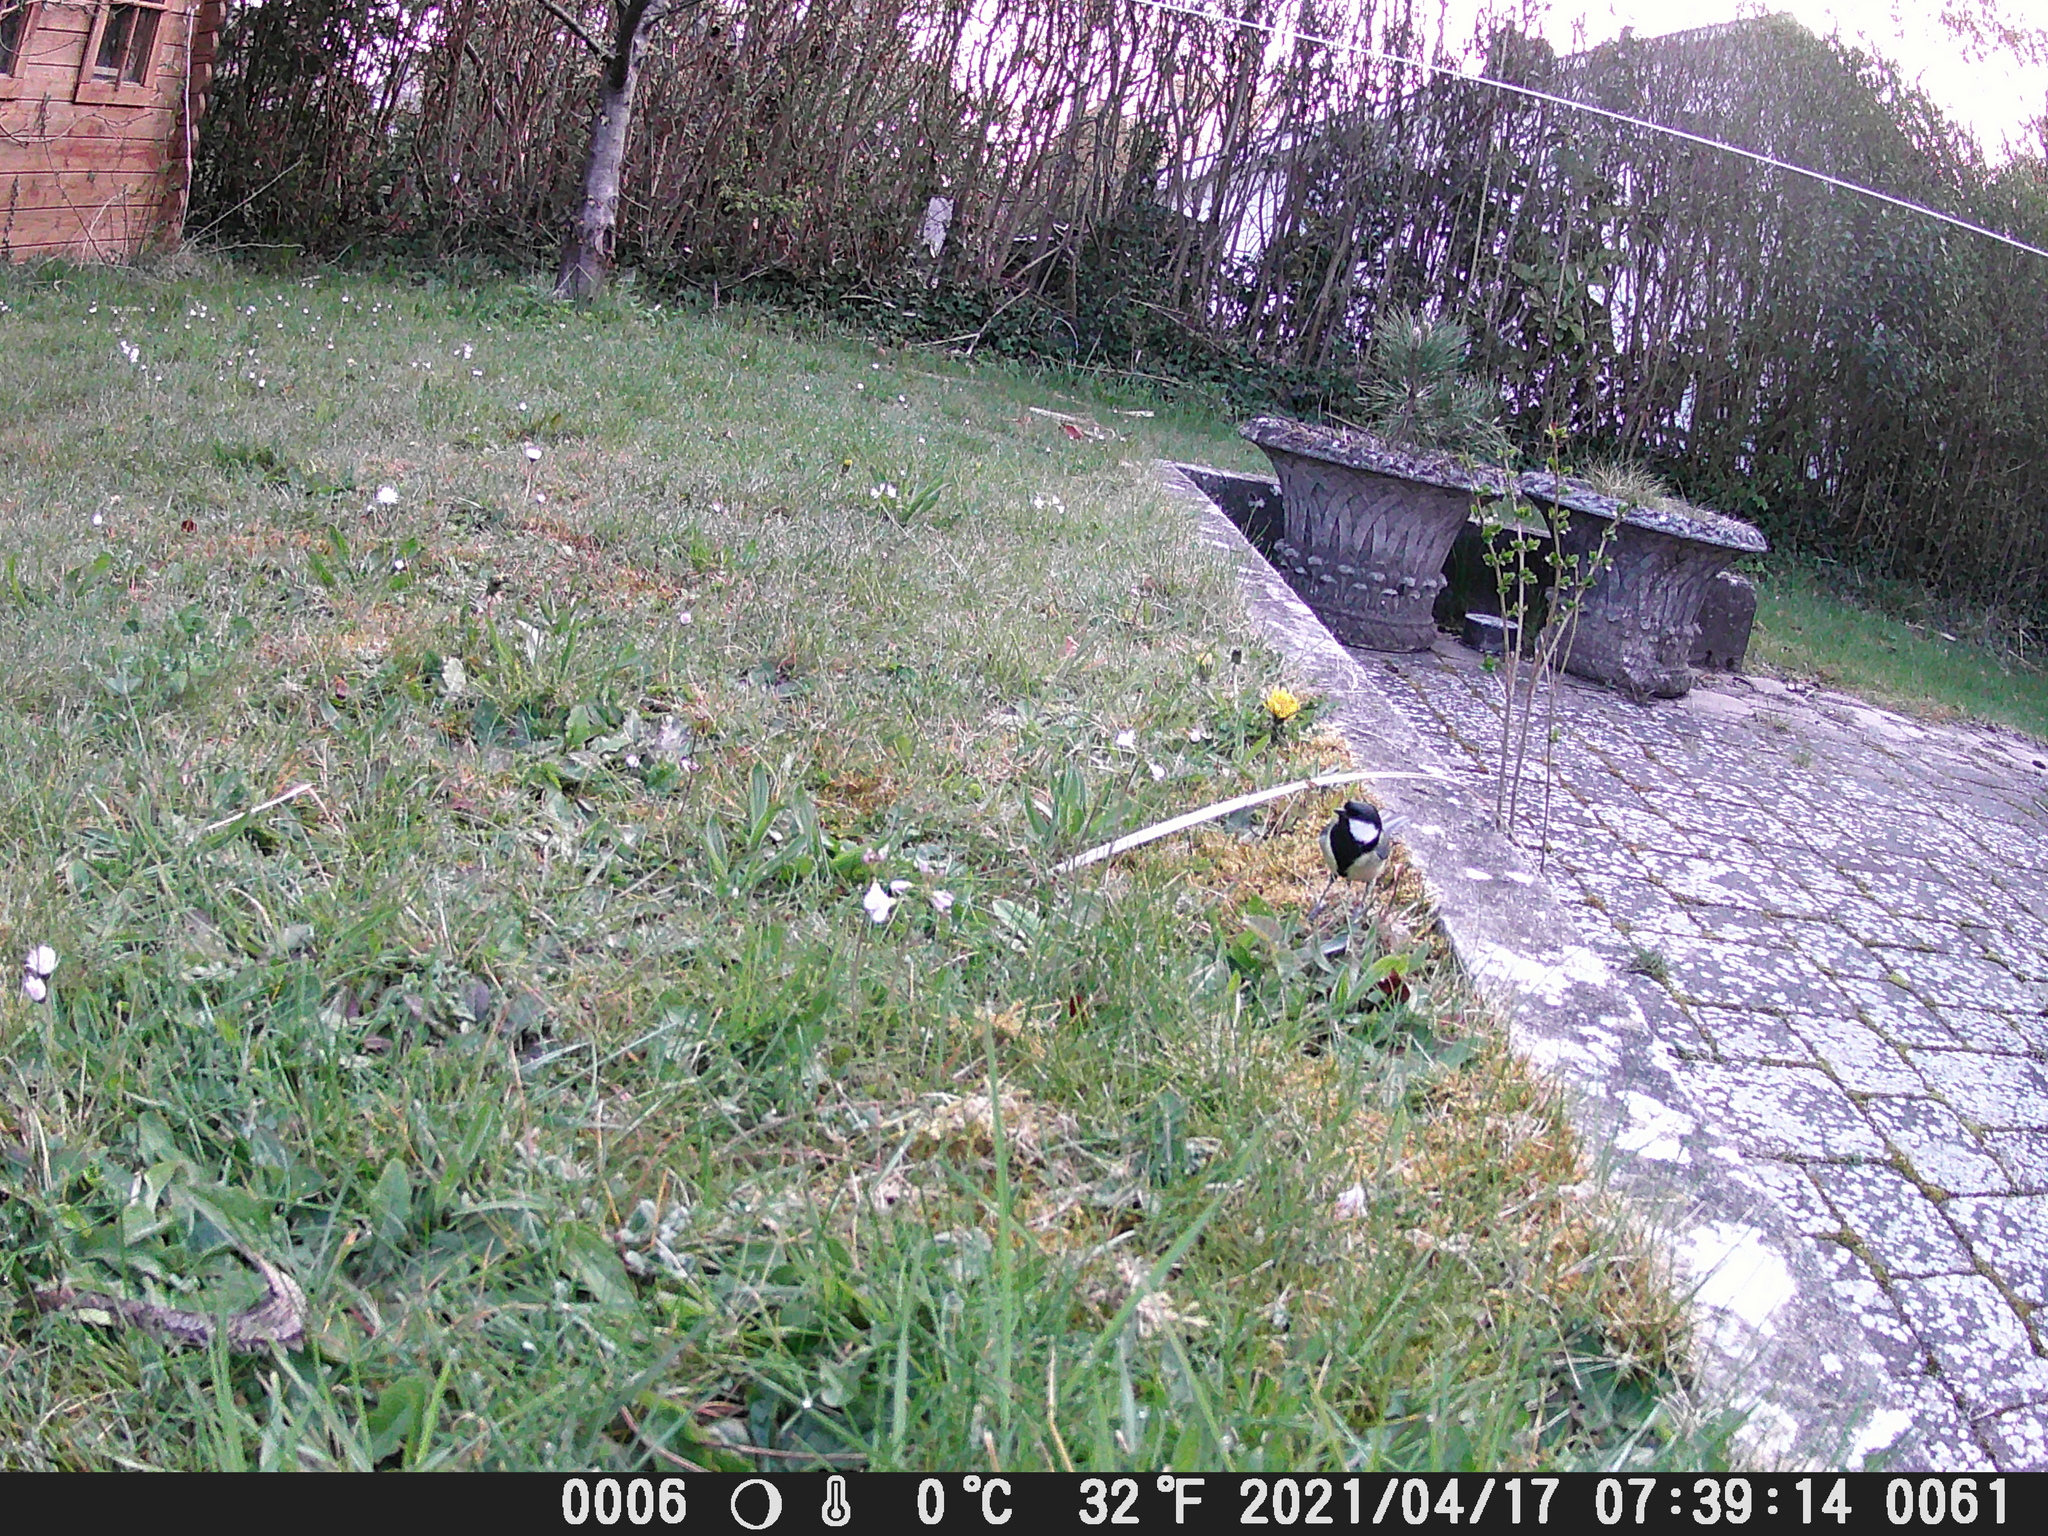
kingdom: Animalia
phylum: Chordata
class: Aves
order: Passeriformes
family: Paridae
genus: Parus
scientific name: Parus major
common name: Great tit
